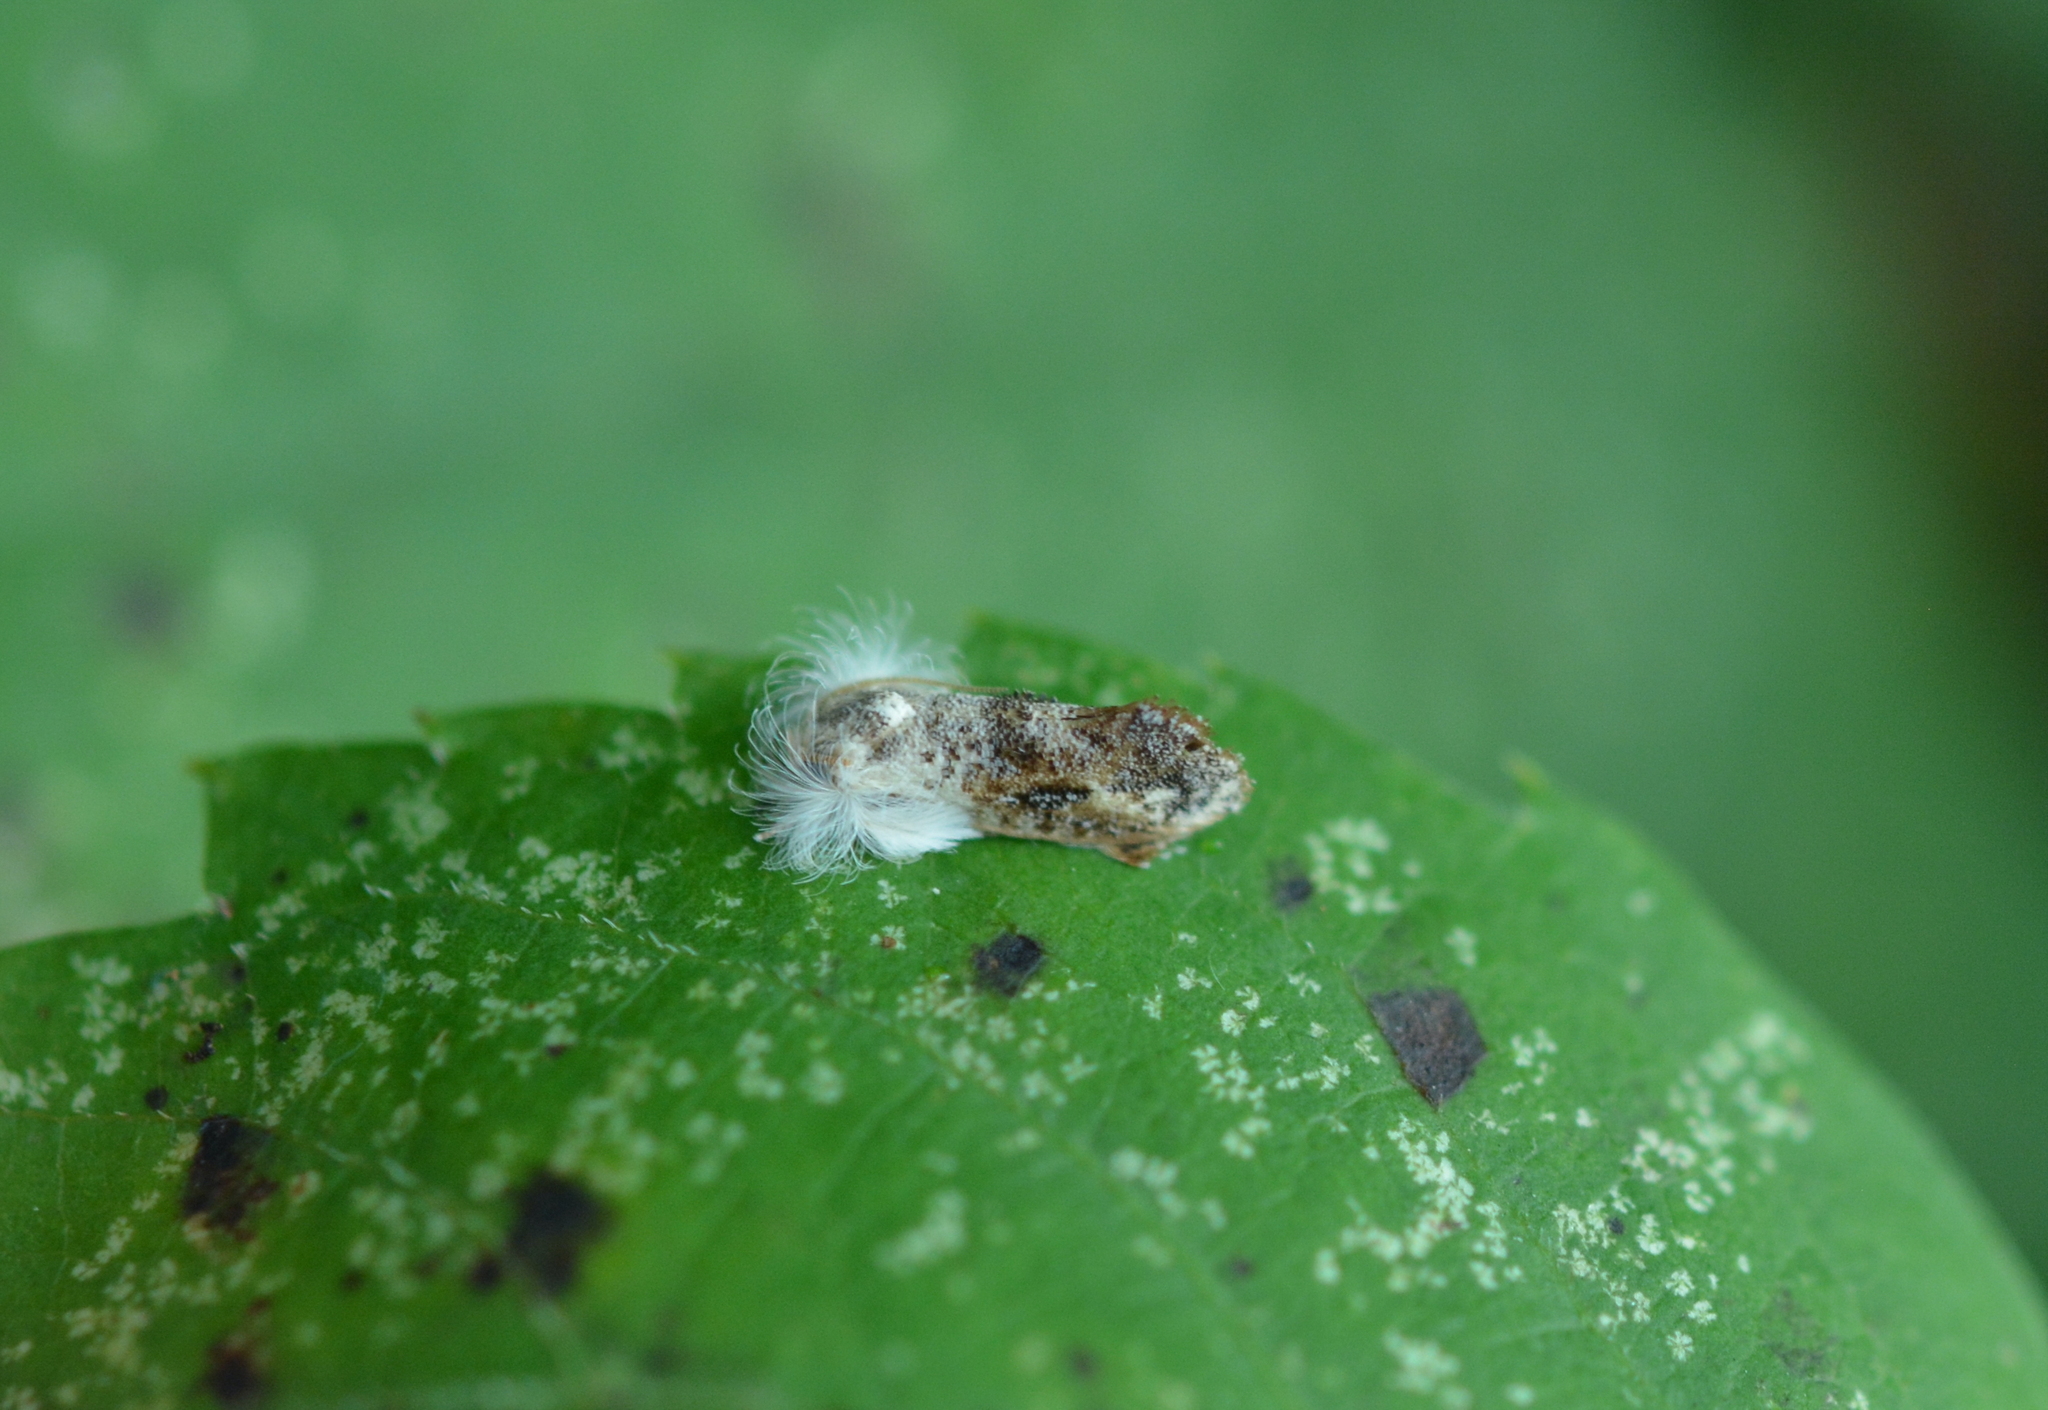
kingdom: Animalia
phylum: Arthropoda
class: Insecta
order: Lepidoptera
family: Tineidae
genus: Acrolophus
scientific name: Acrolophus mycetophagus
